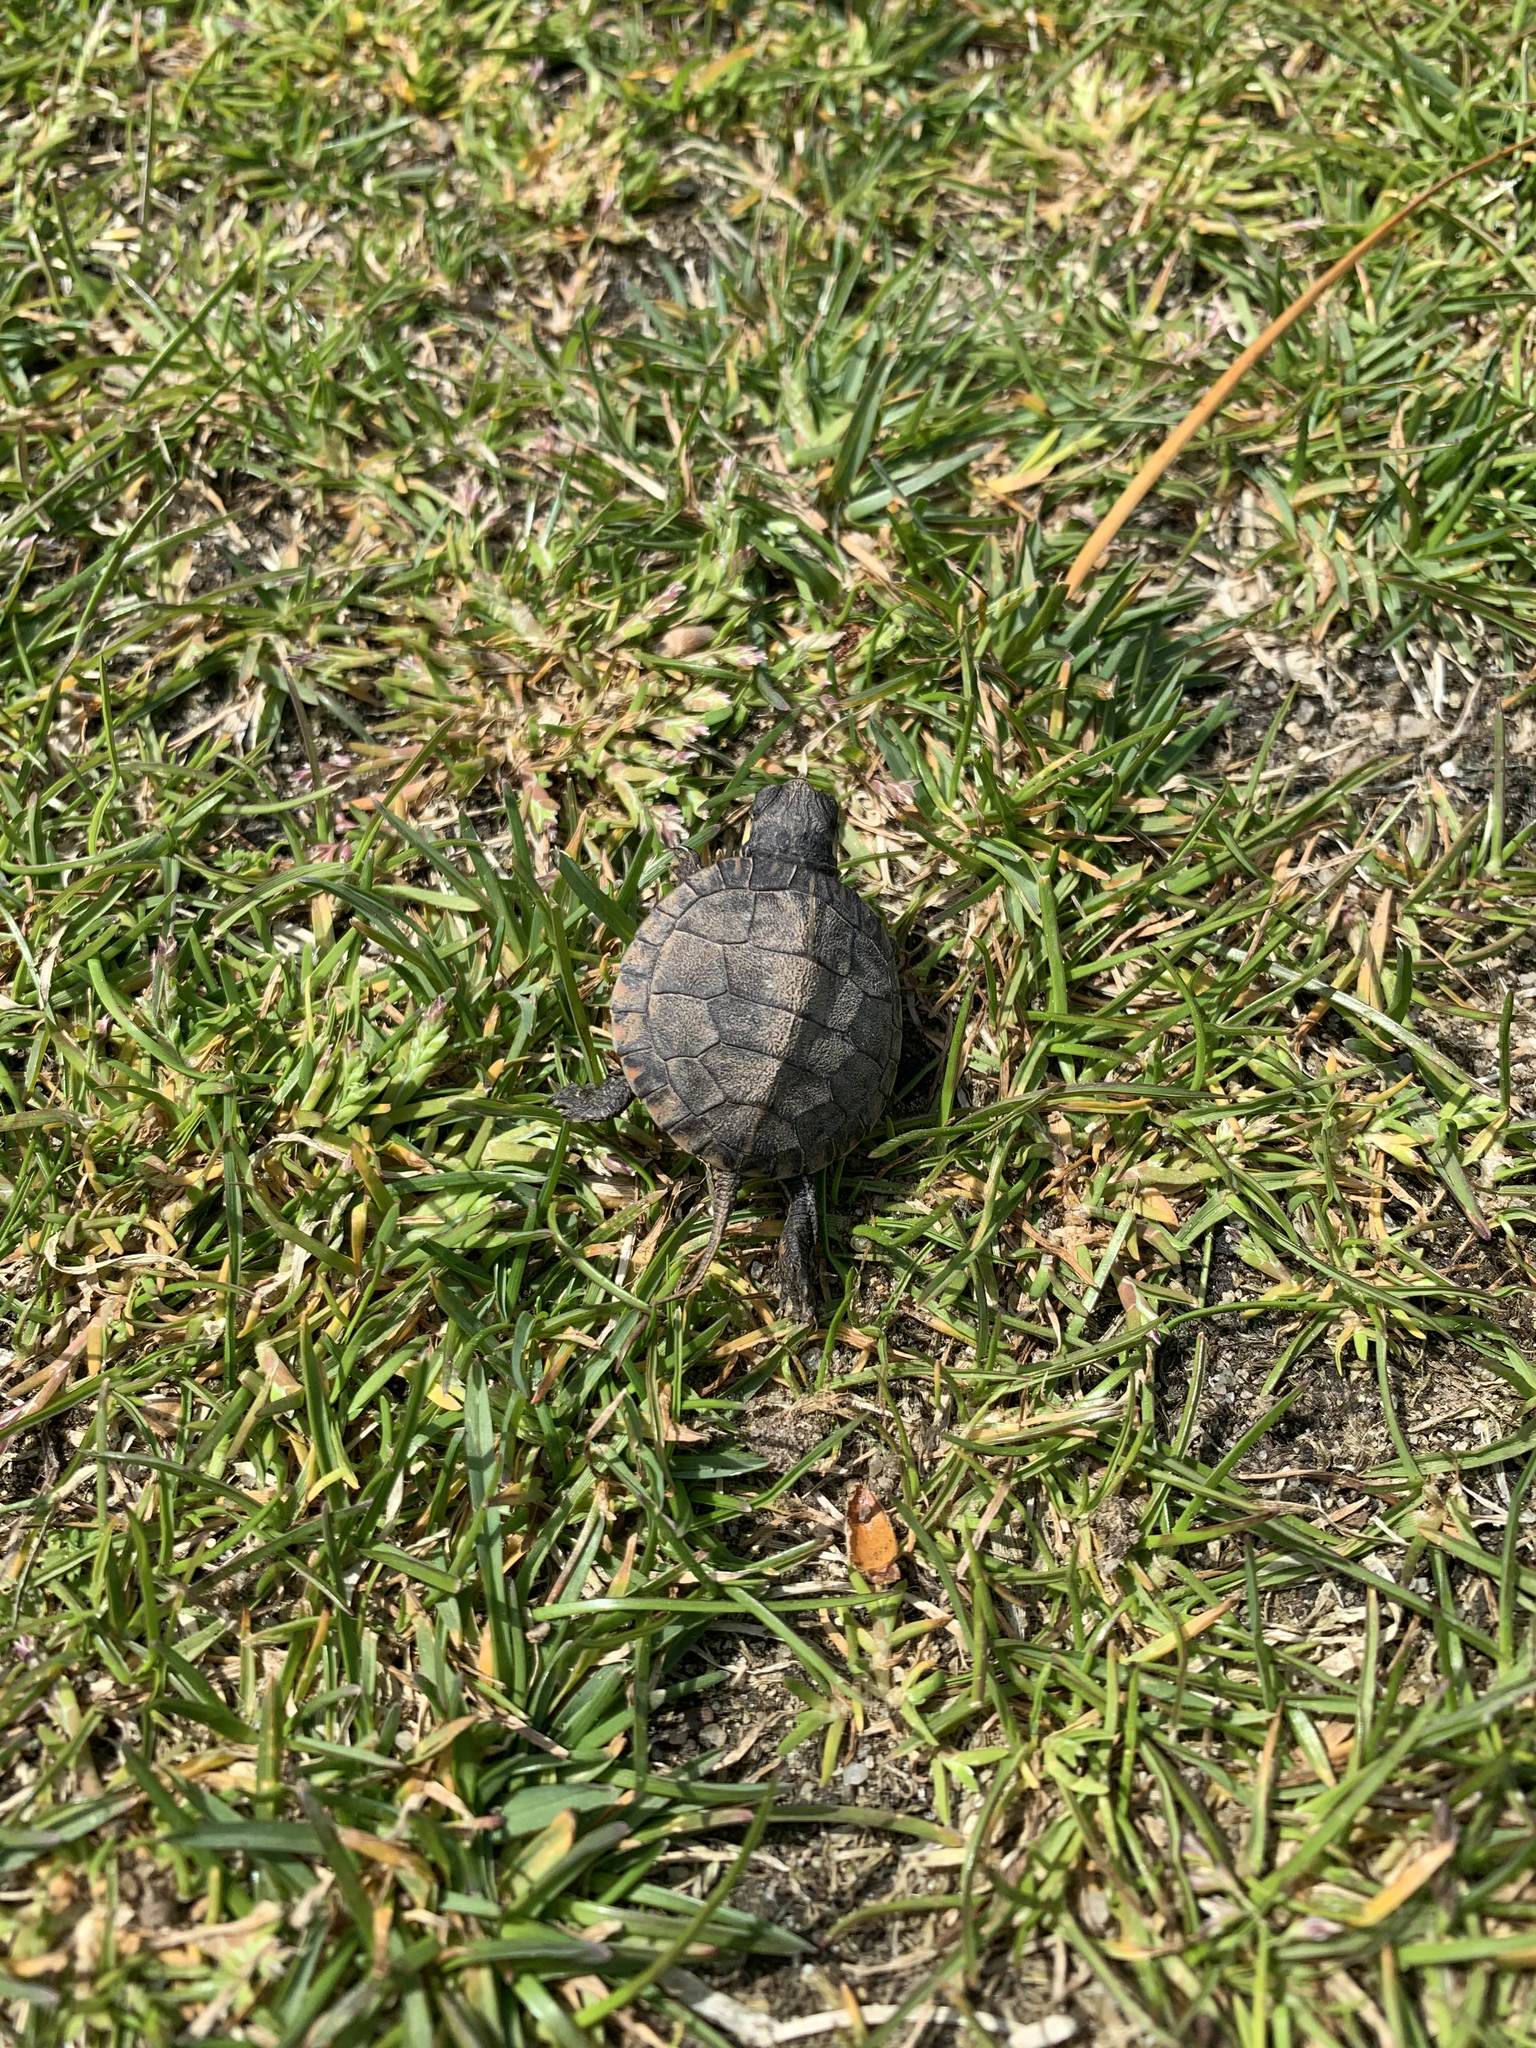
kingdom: Animalia
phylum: Chordata
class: Testudines
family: Emydidae
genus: Chrysemys
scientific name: Chrysemys picta
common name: Painted turtle
